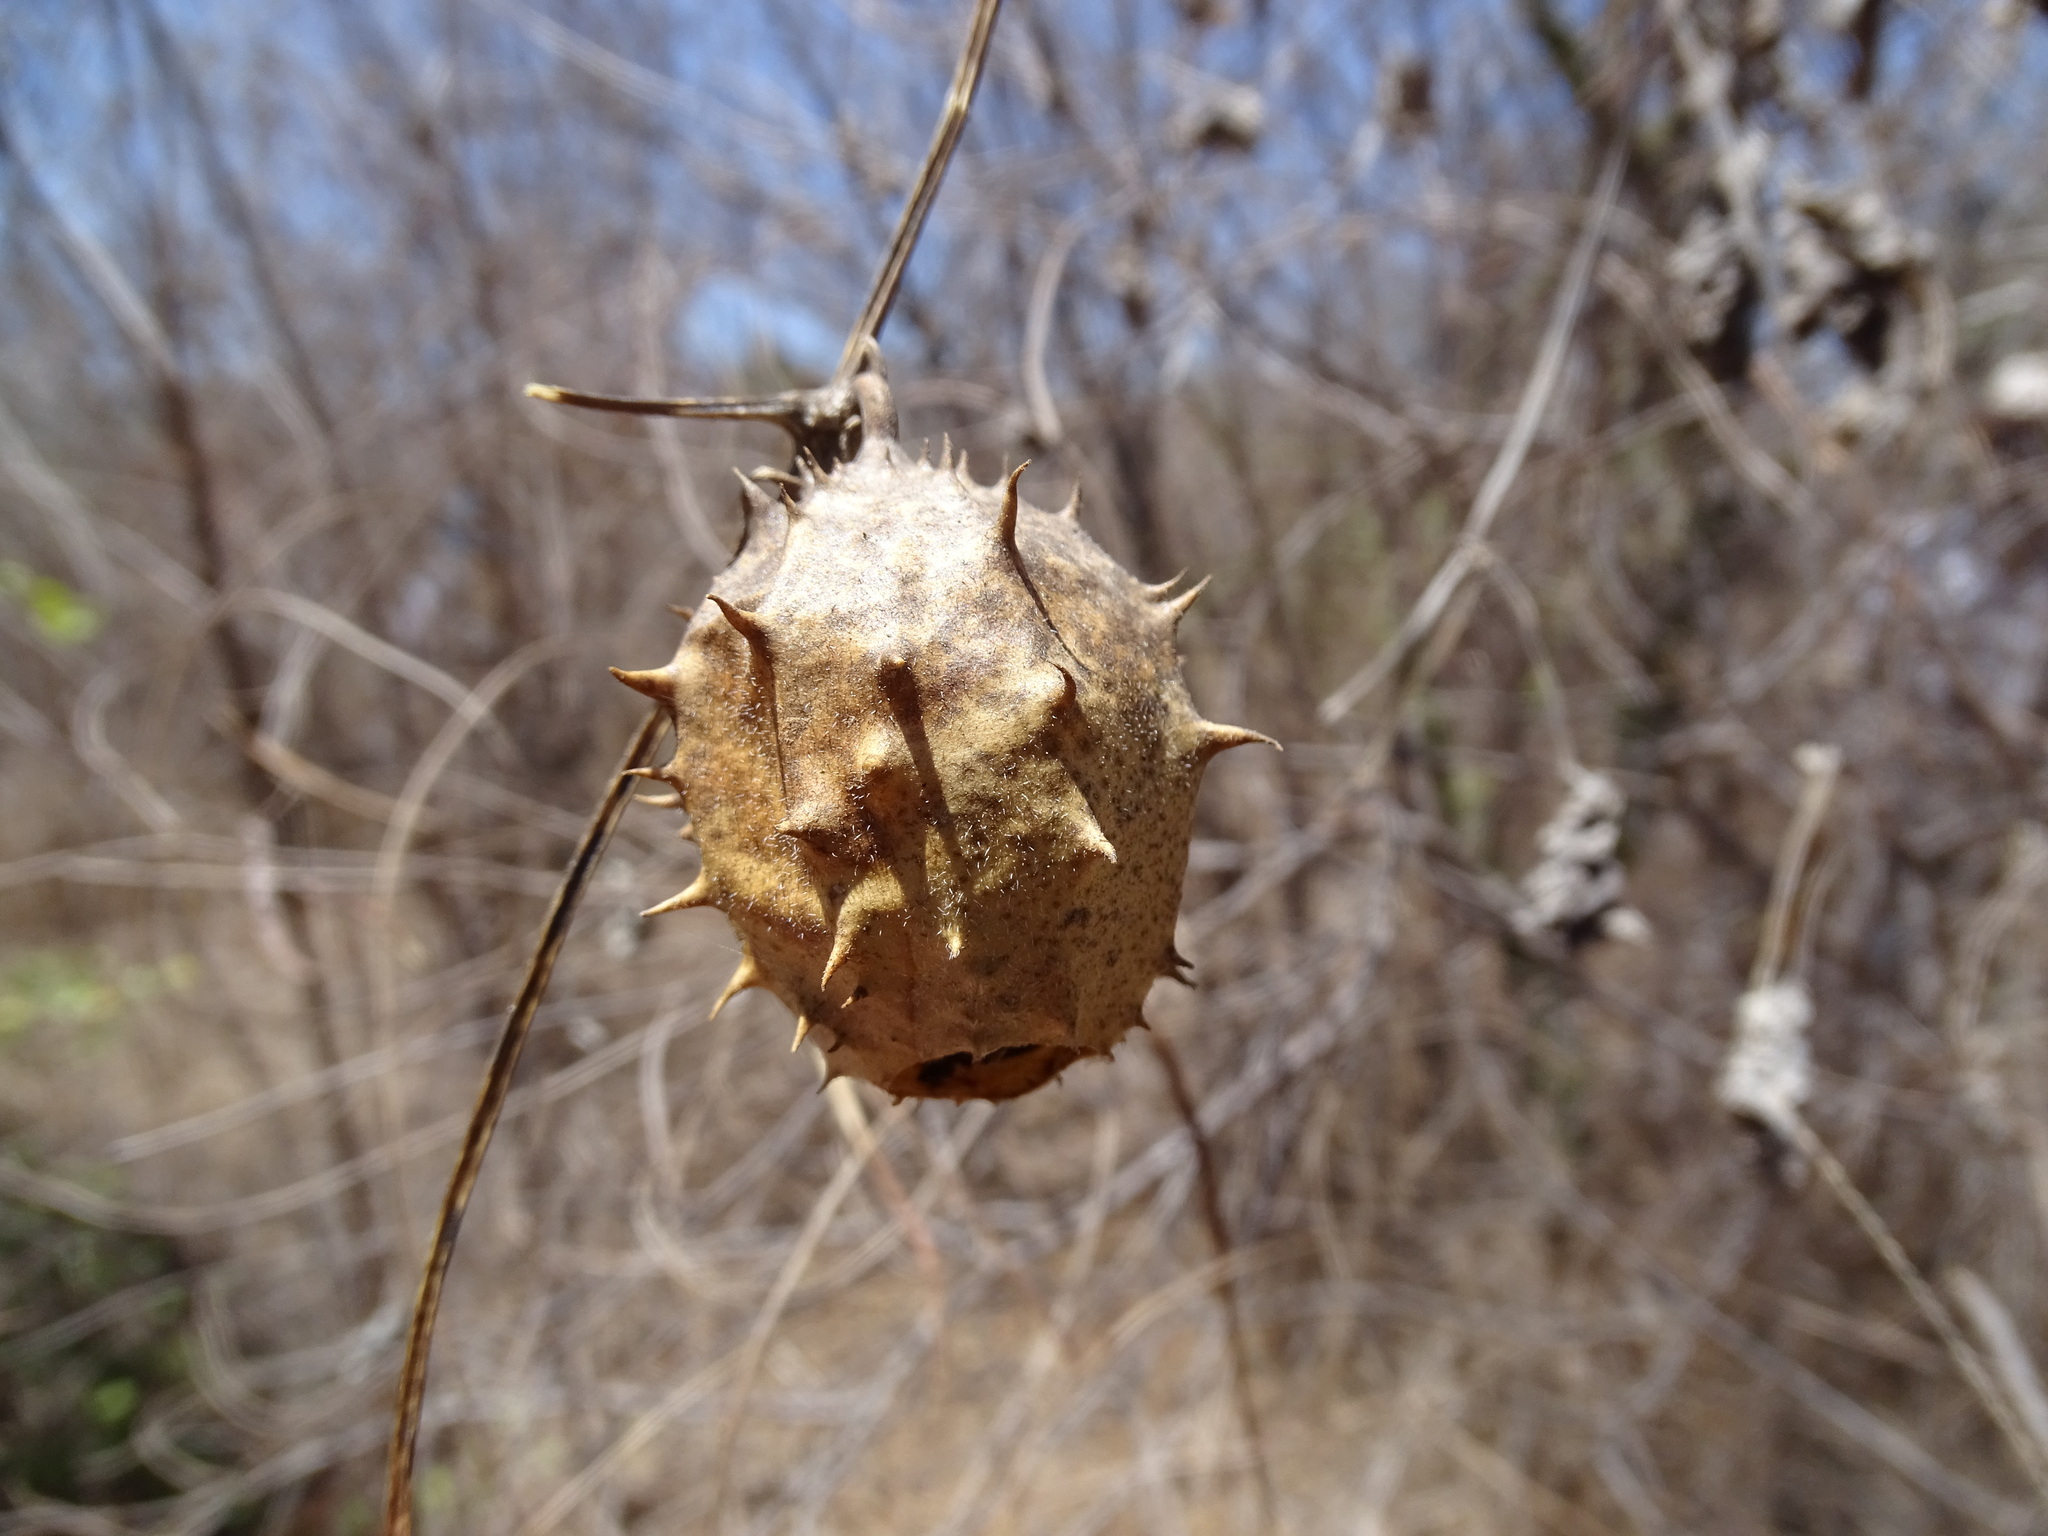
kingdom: Plantae
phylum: Tracheophyta
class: Magnoliopsida
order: Cucurbitales
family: Cucurbitaceae
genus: Luffa
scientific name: Luffa operculata
